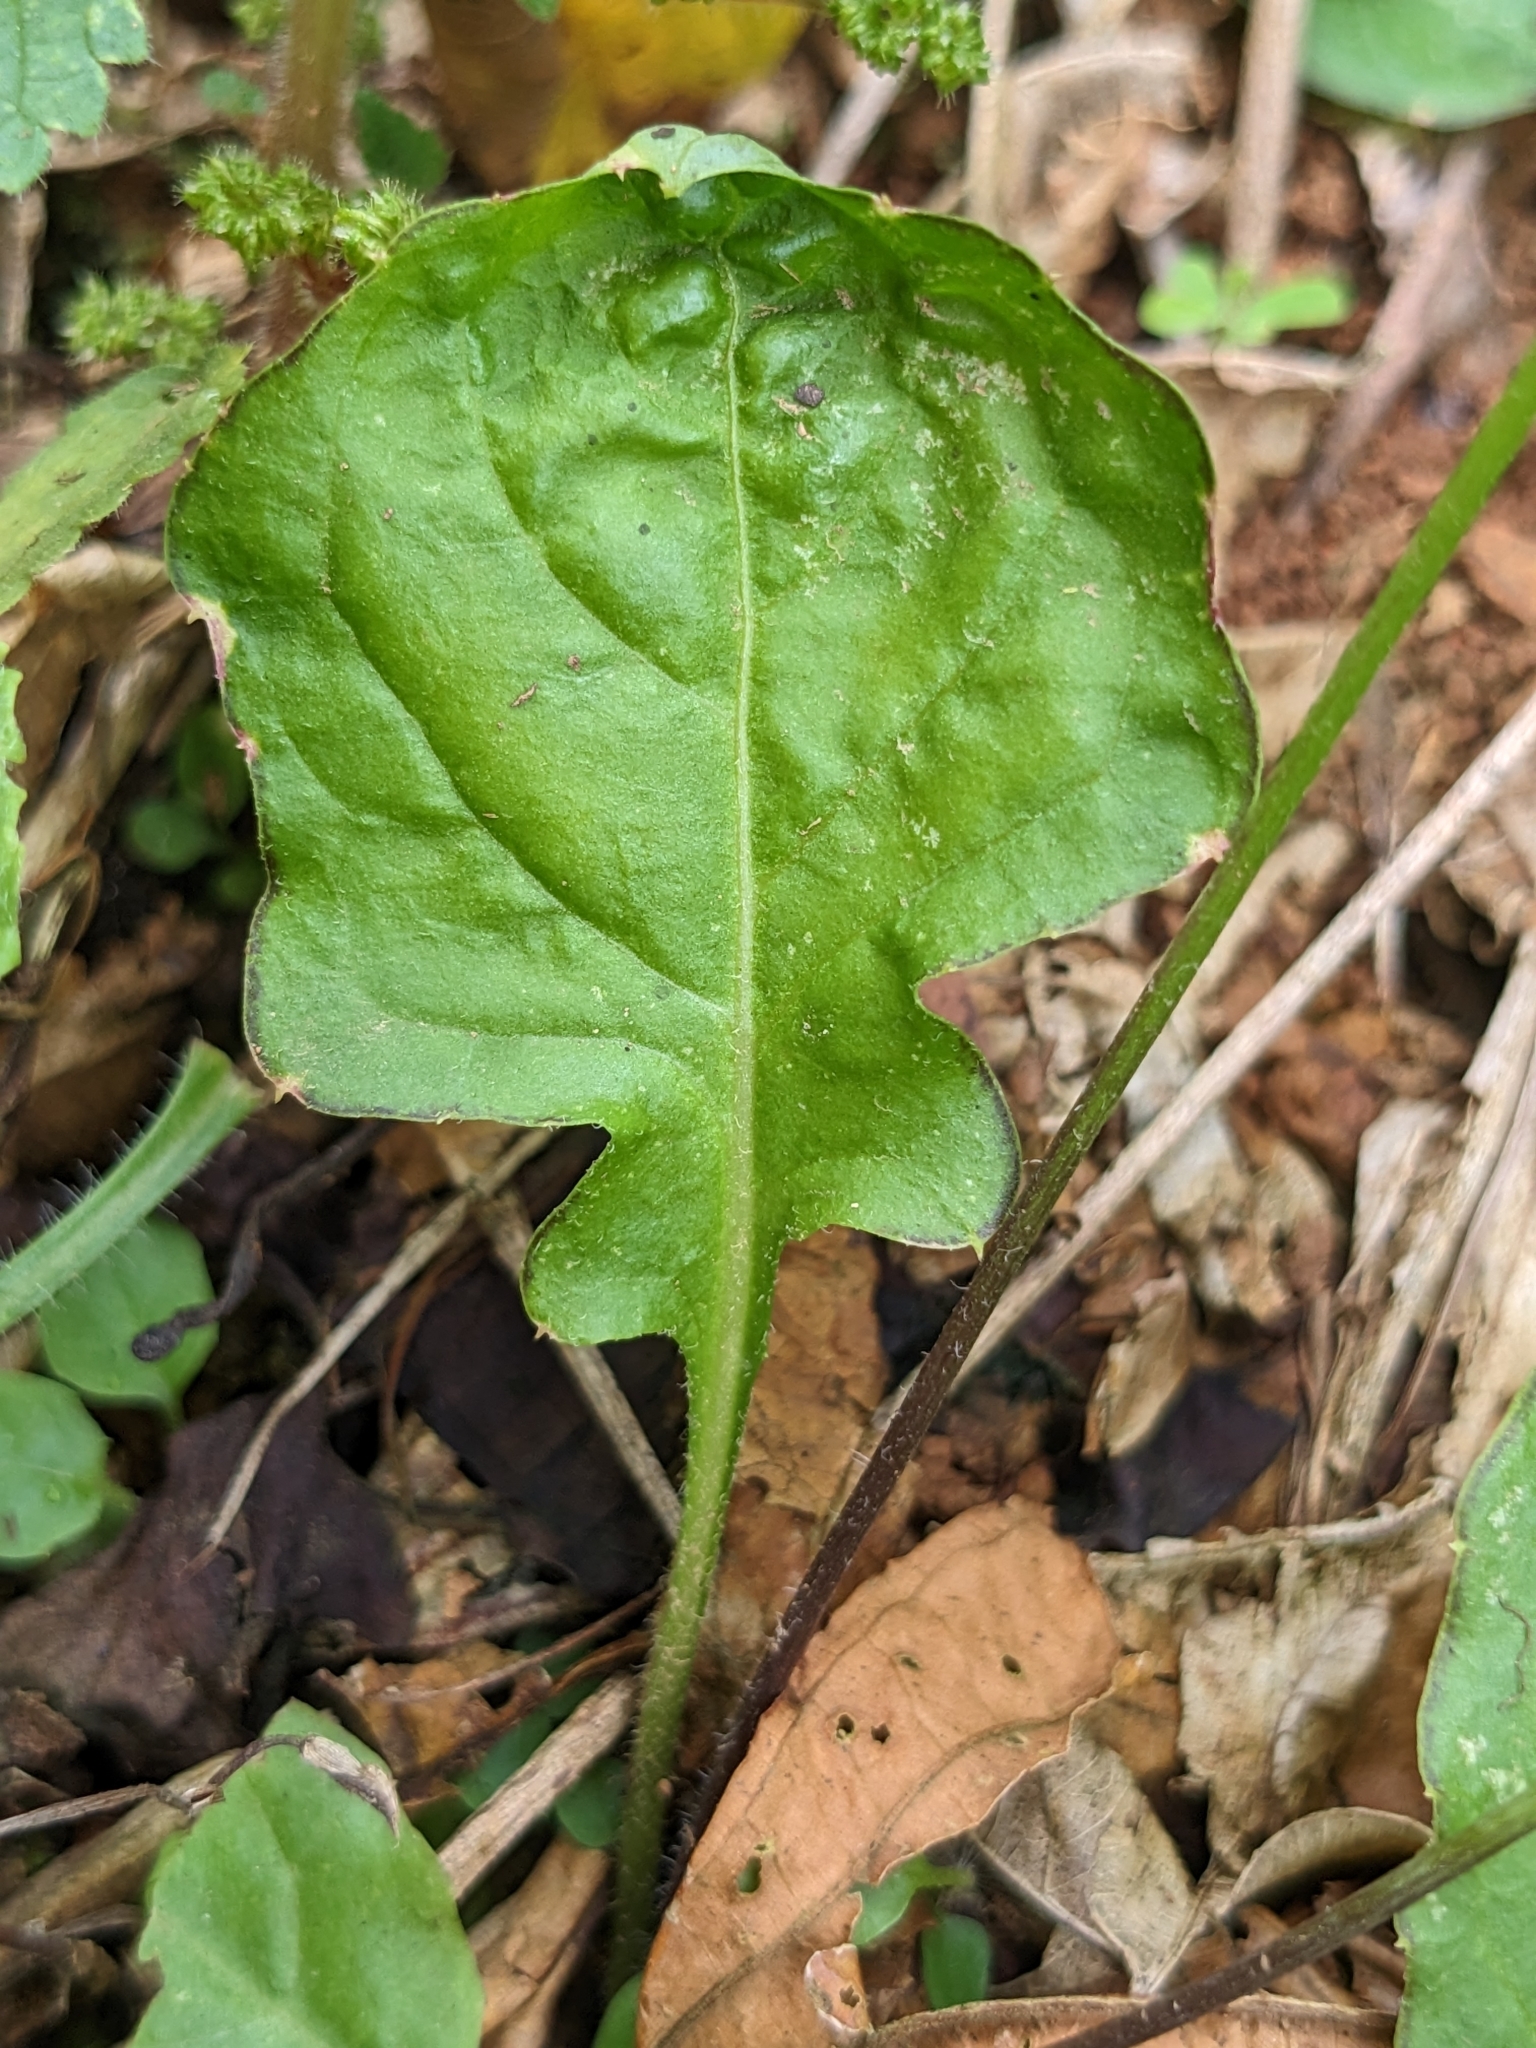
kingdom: Plantae
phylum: Tracheophyta
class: Magnoliopsida
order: Asterales
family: Asteraceae
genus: Youngia
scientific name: Youngia japonica
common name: Oriental false hawksbeard
